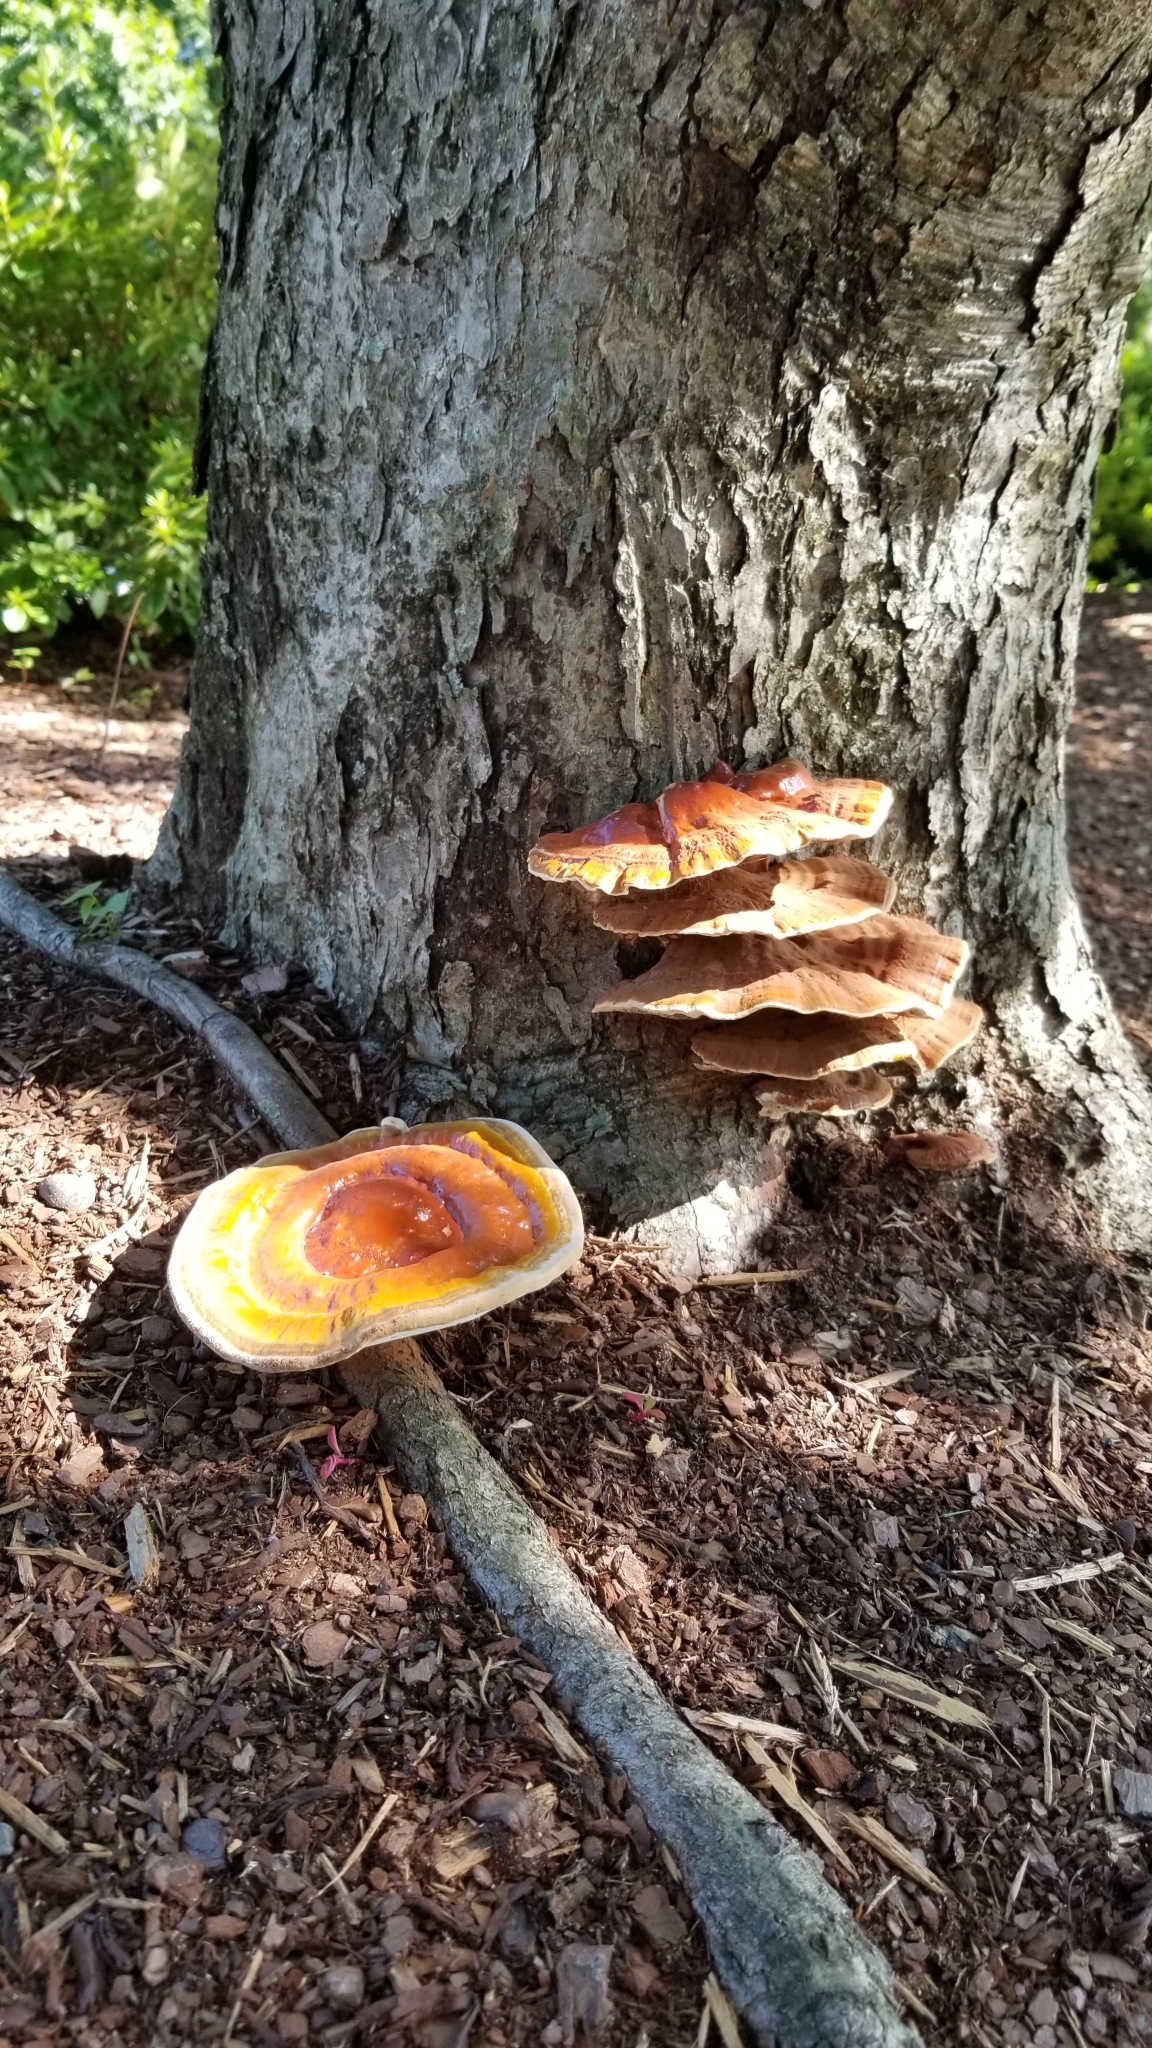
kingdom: Fungi
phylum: Basidiomycota
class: Agaricomycetes
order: Polyporales
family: Polyporaceae
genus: Ganoderma
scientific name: Ganoderma resinaceum
